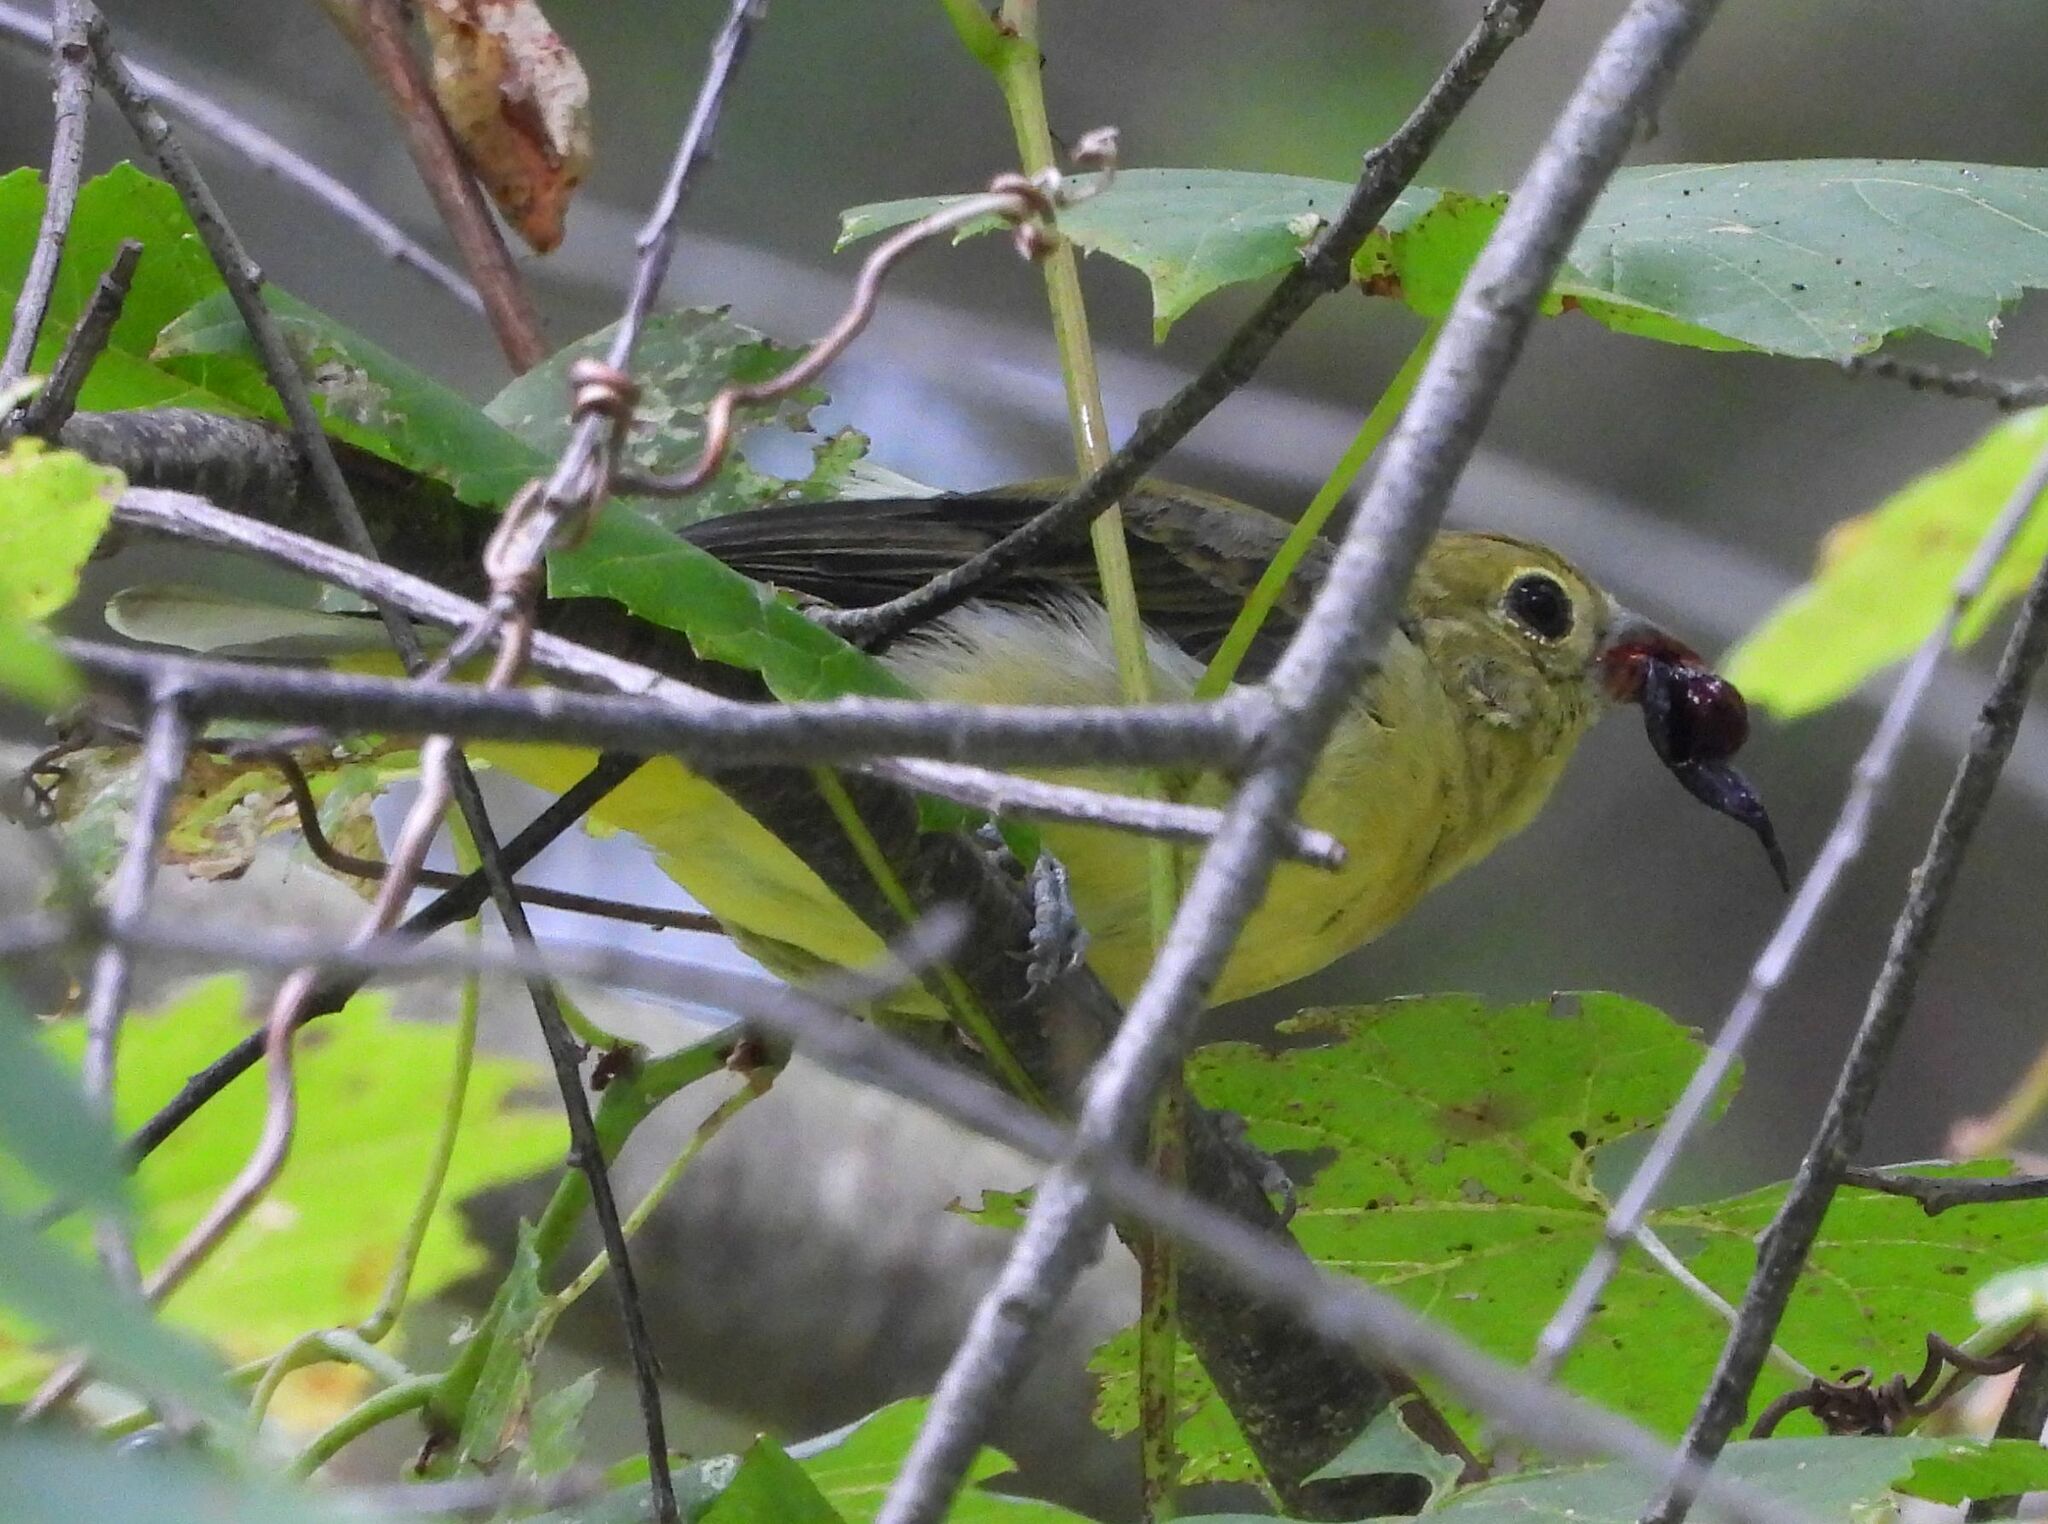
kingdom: Animalia
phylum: Chordata
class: Aves
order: Passeriformes
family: Cardinalidae
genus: Piranga
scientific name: Piranga olivacea
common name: Scarlet tanager
